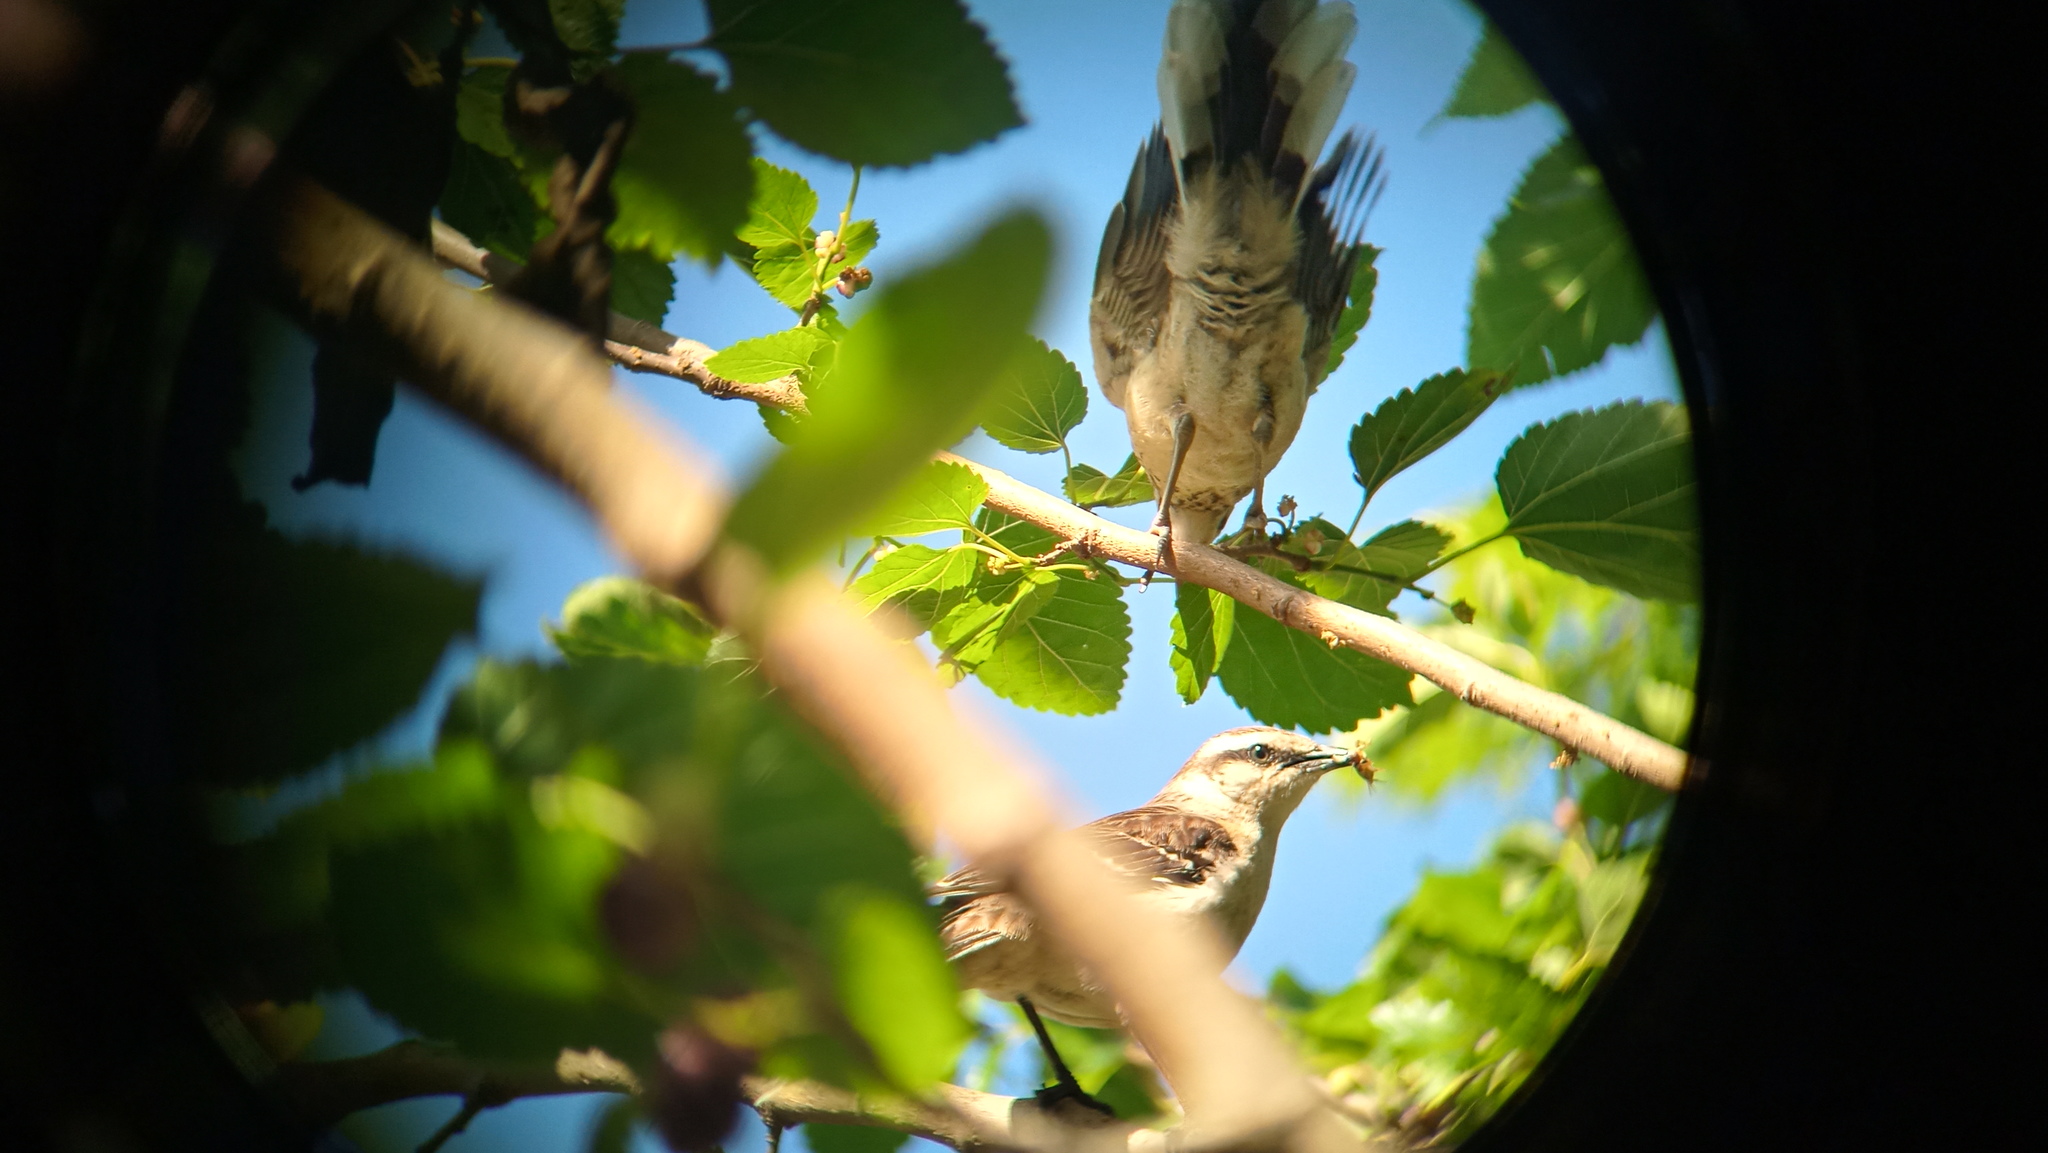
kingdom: Animalia
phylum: Chordata
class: Aves
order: Passeriformes
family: Mimidae
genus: Mimus
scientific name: Mimus saturninus
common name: Chalk-browed mockingbird
